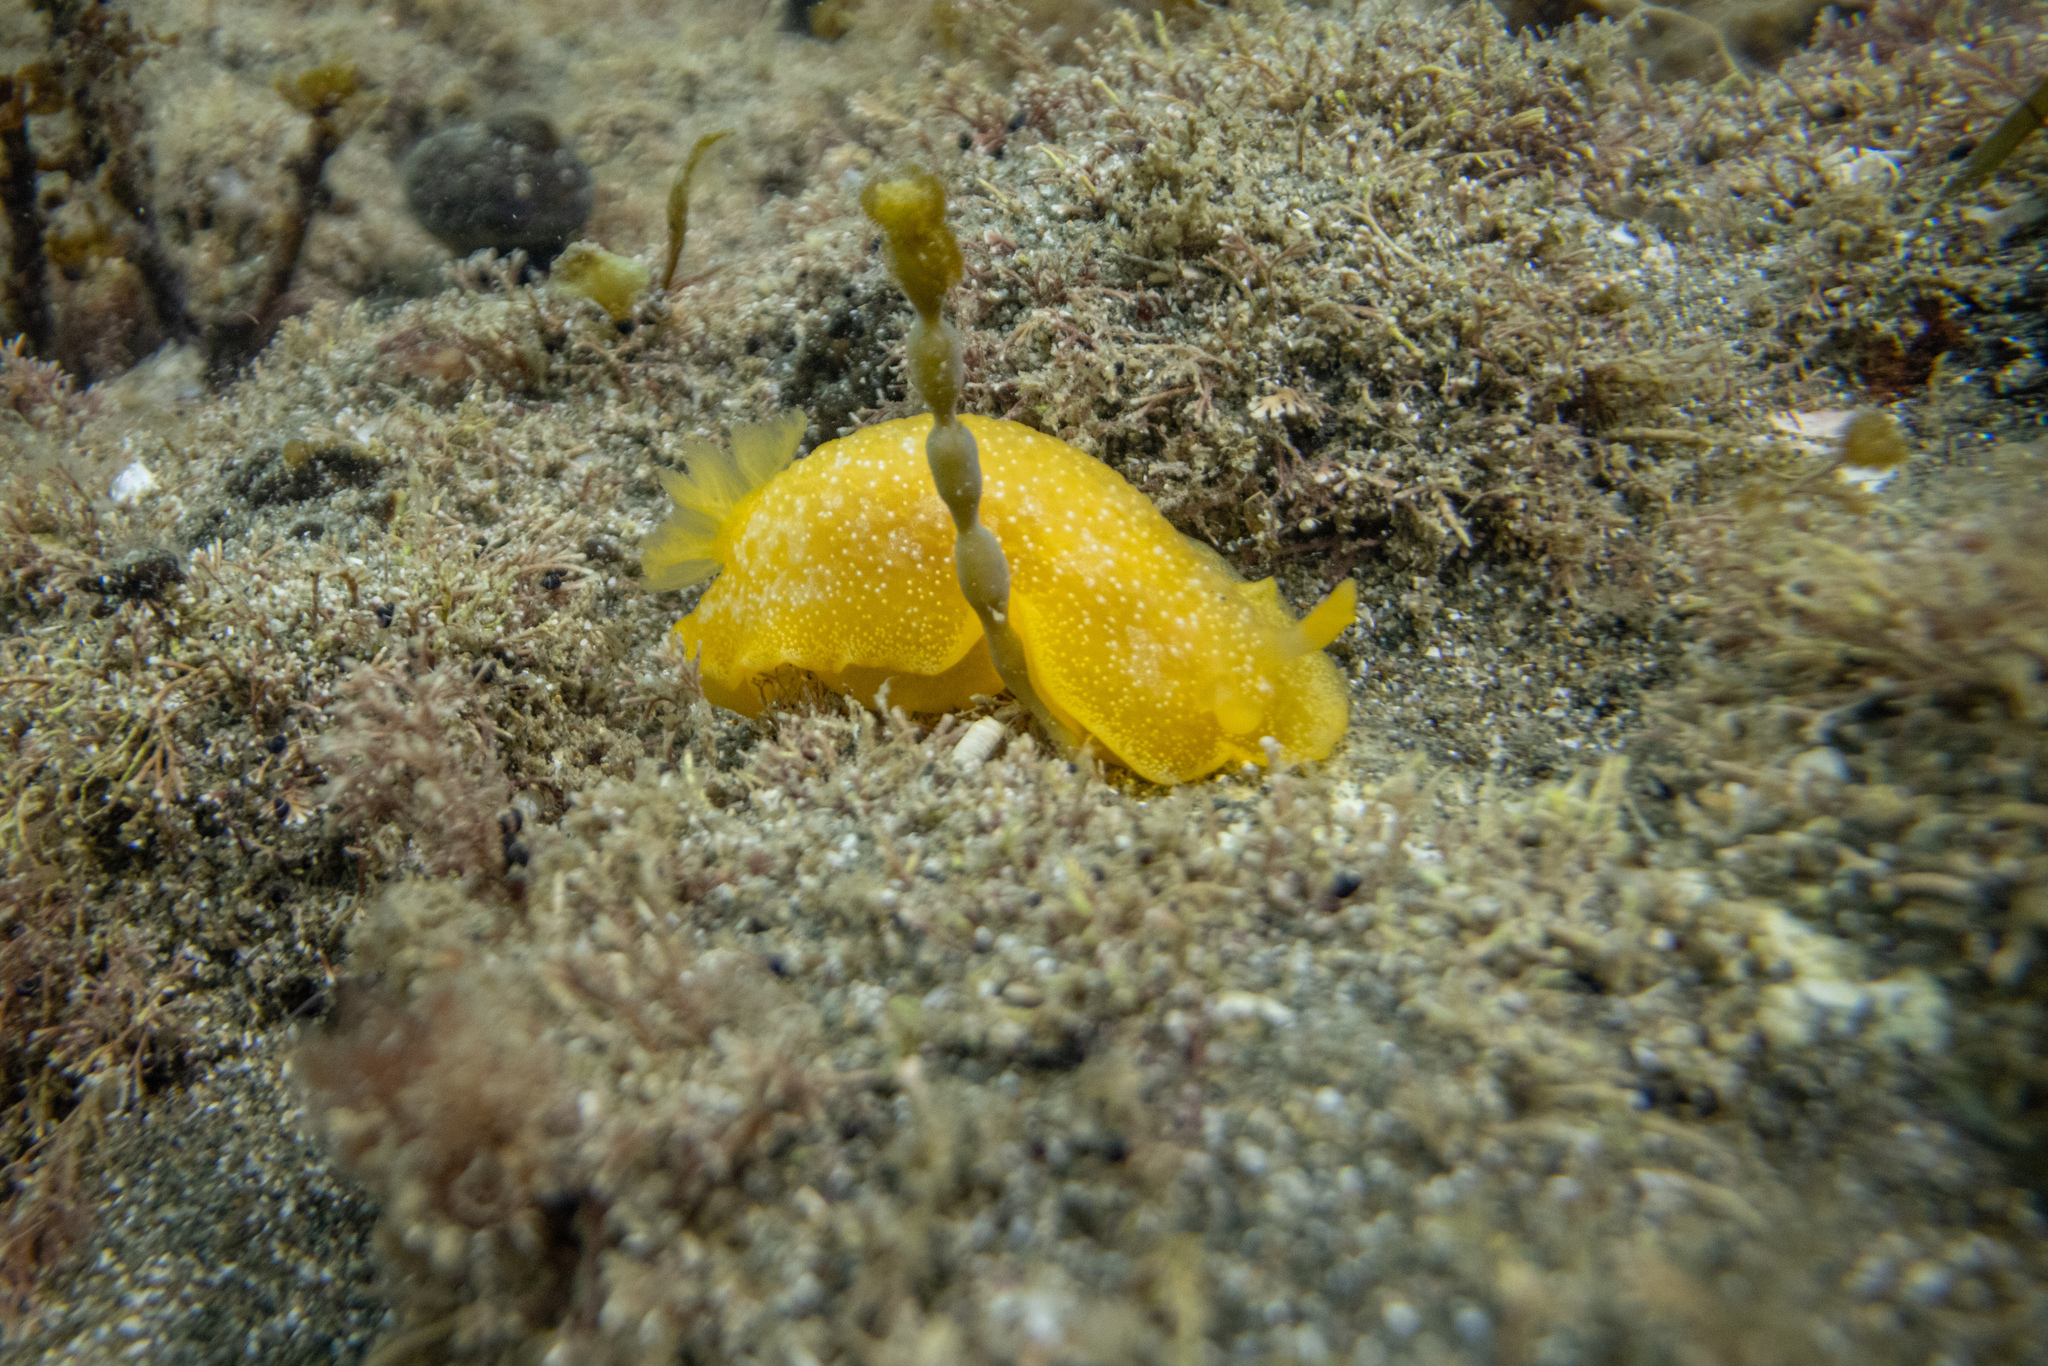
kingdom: Animalia
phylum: Mollusca
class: Gastropoda
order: Nudibranchia
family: Dendrodorididae
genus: Dendrodoris
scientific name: Dendrodoris citrina
